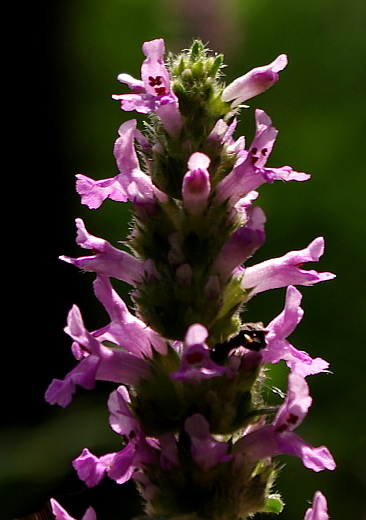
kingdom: Plantae
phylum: Tracheophyta
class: Magnoliopsida
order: Lamiales
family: Lamiaceae
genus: Betonica
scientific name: Betonica officinalis
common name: Bishop's-wort
